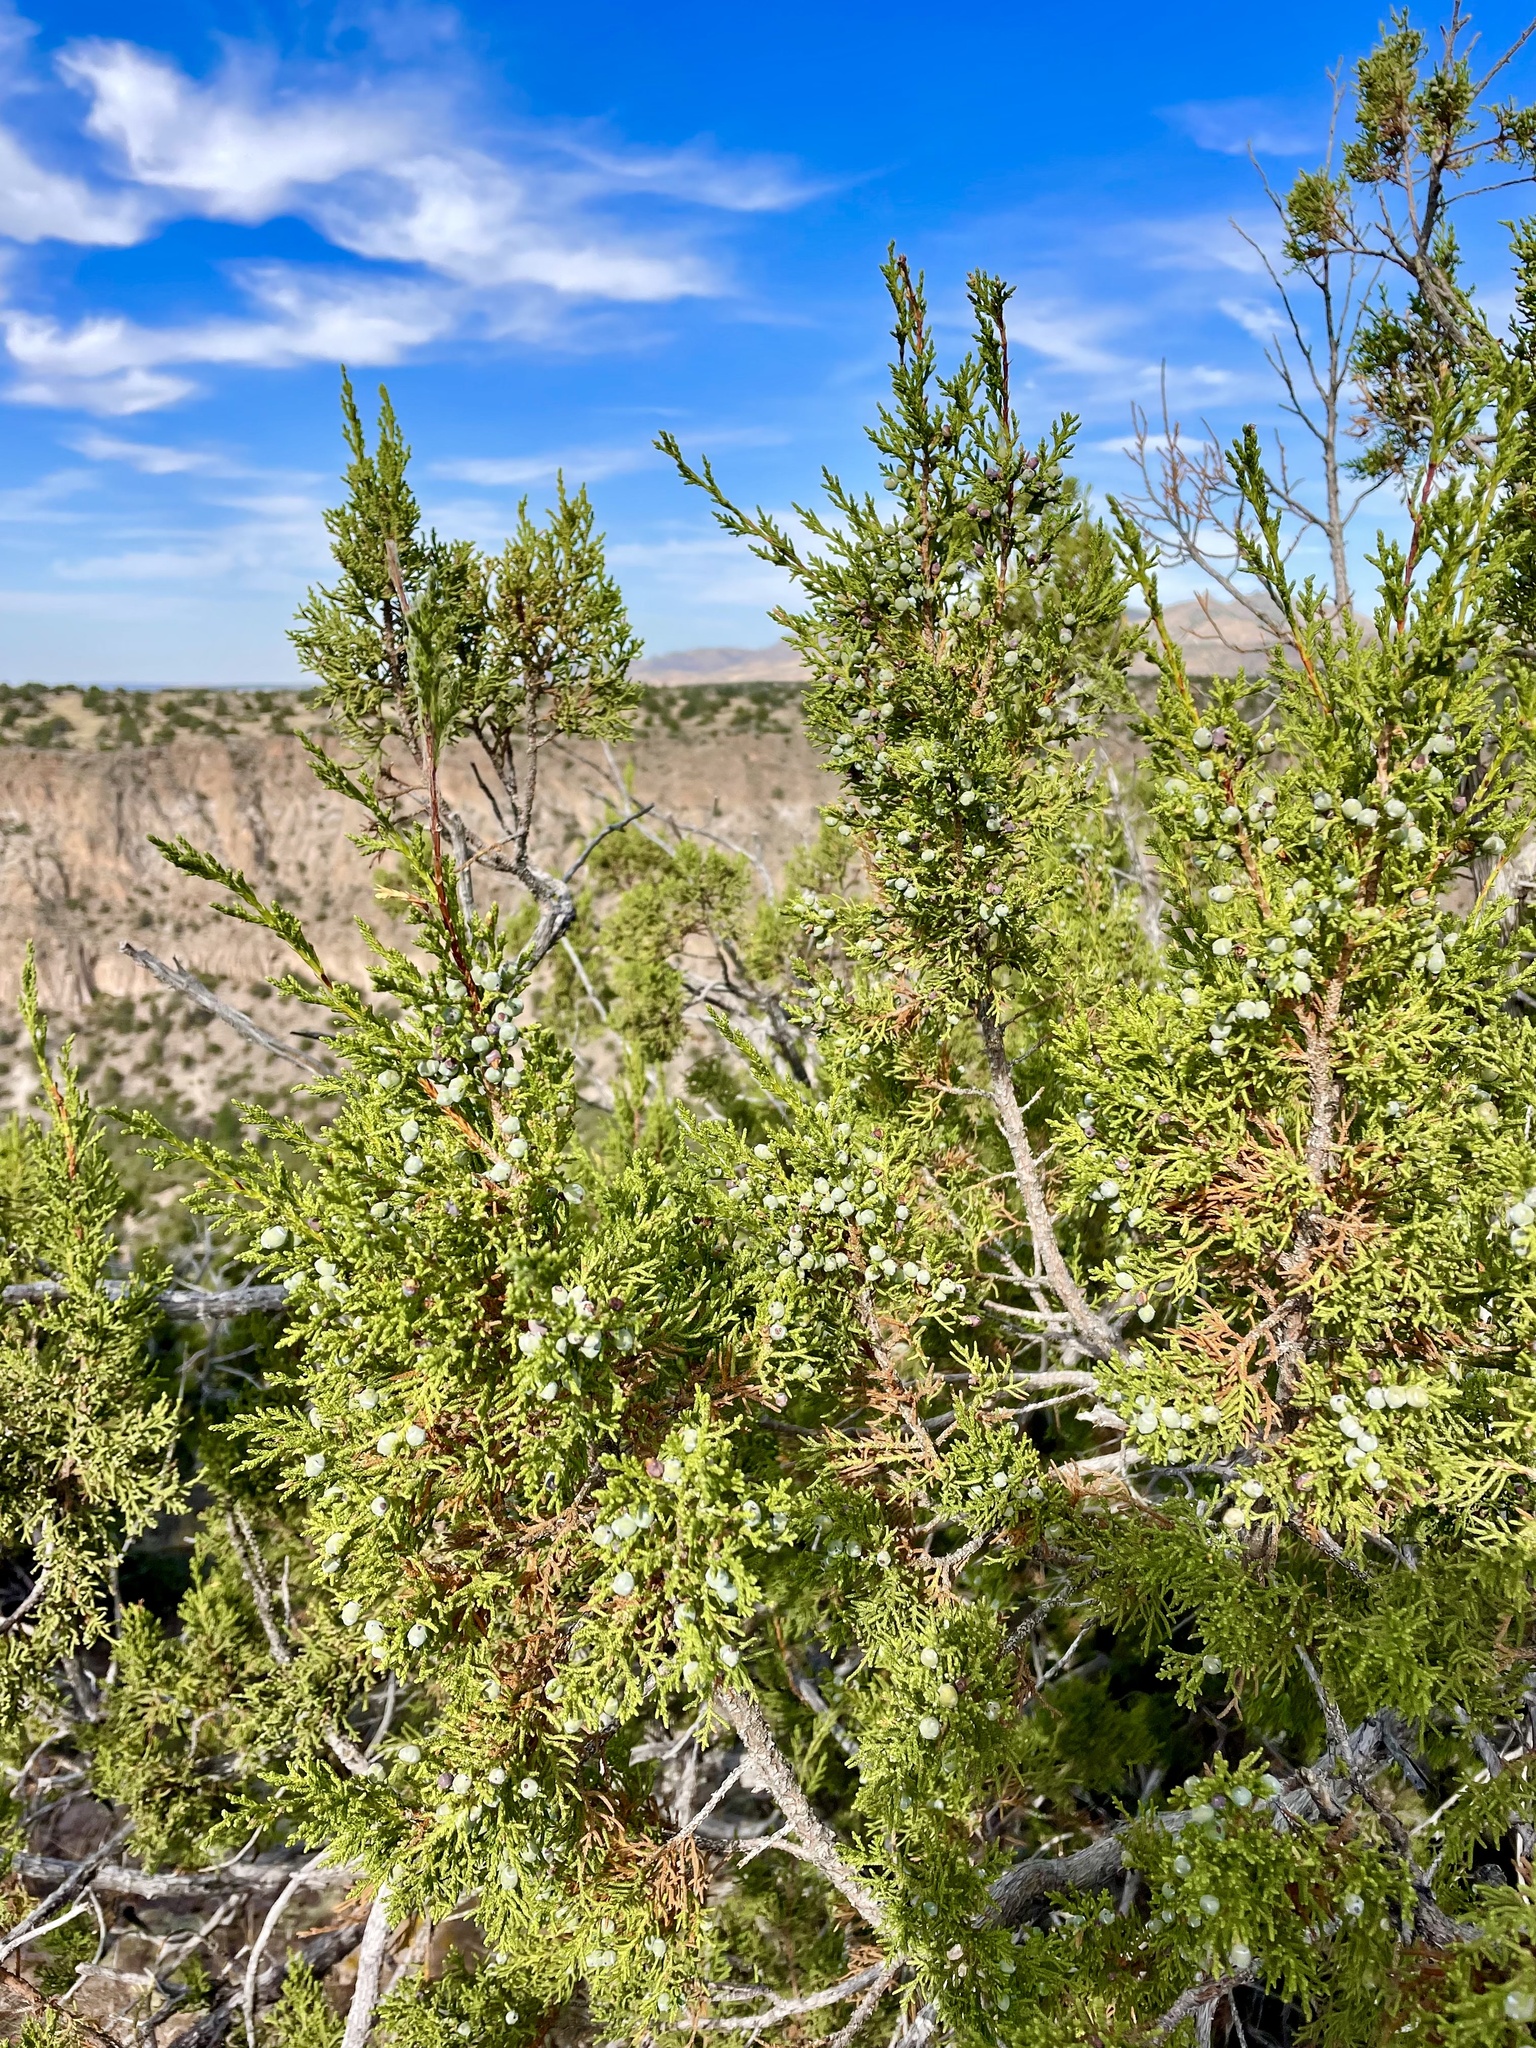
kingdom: Plantae
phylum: Tracheophyta
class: Pinopsida
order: Pinales
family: Cupressaceae
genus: Juniperus
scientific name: Juniperus monosperma
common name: One-seed juniper
